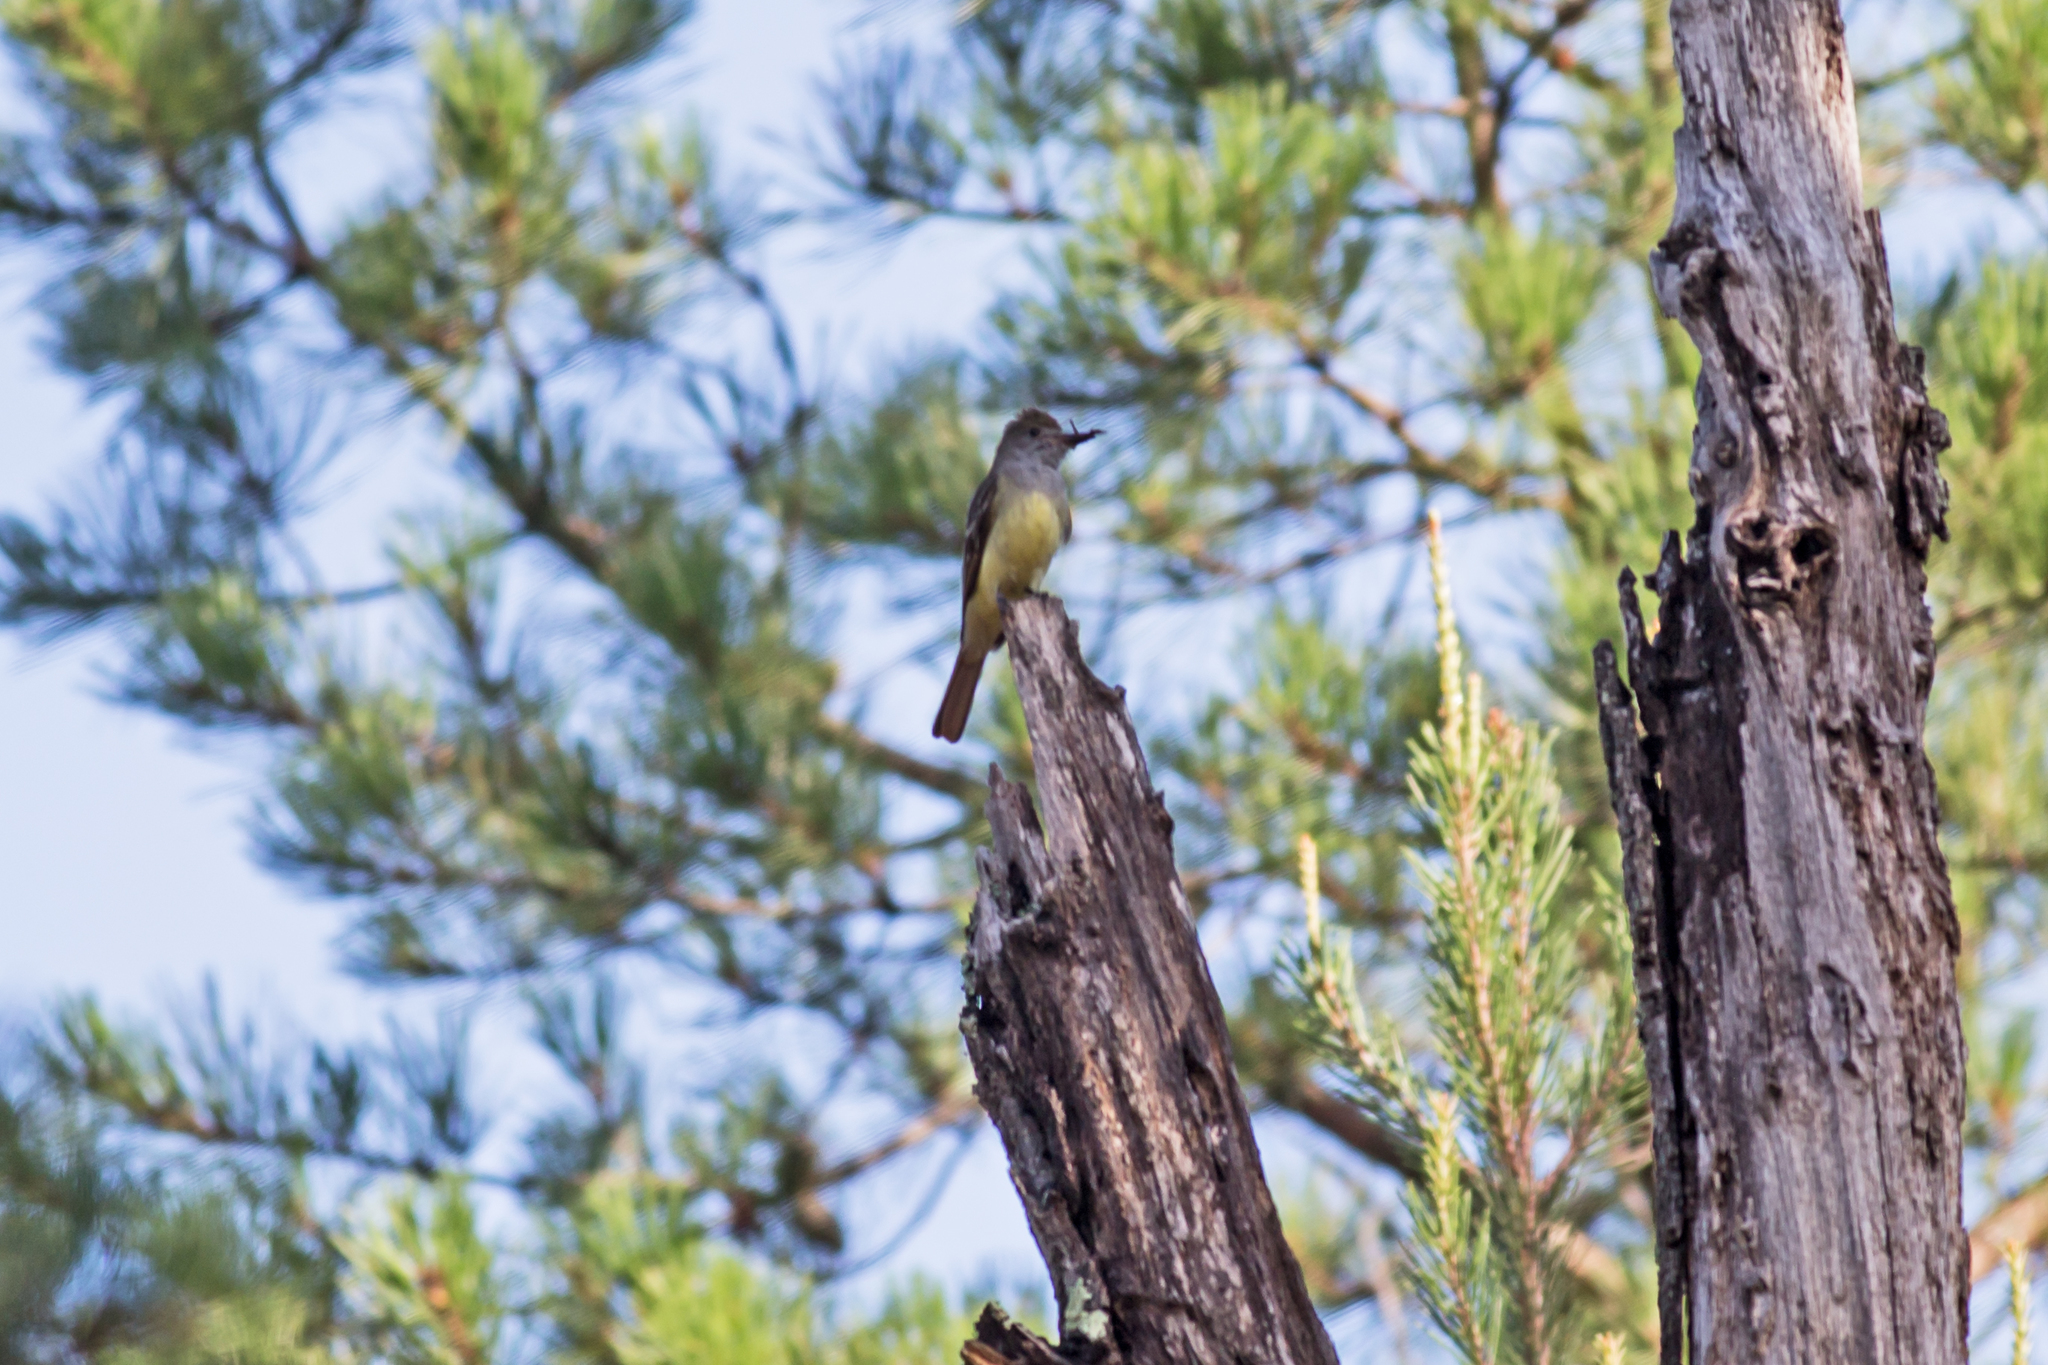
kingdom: Animalia
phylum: Chordata
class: Aves
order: Passeriformes
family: Tyrannidae
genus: Myiarchus
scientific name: Myiarchus crinitus
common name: Great crested flycatcher
